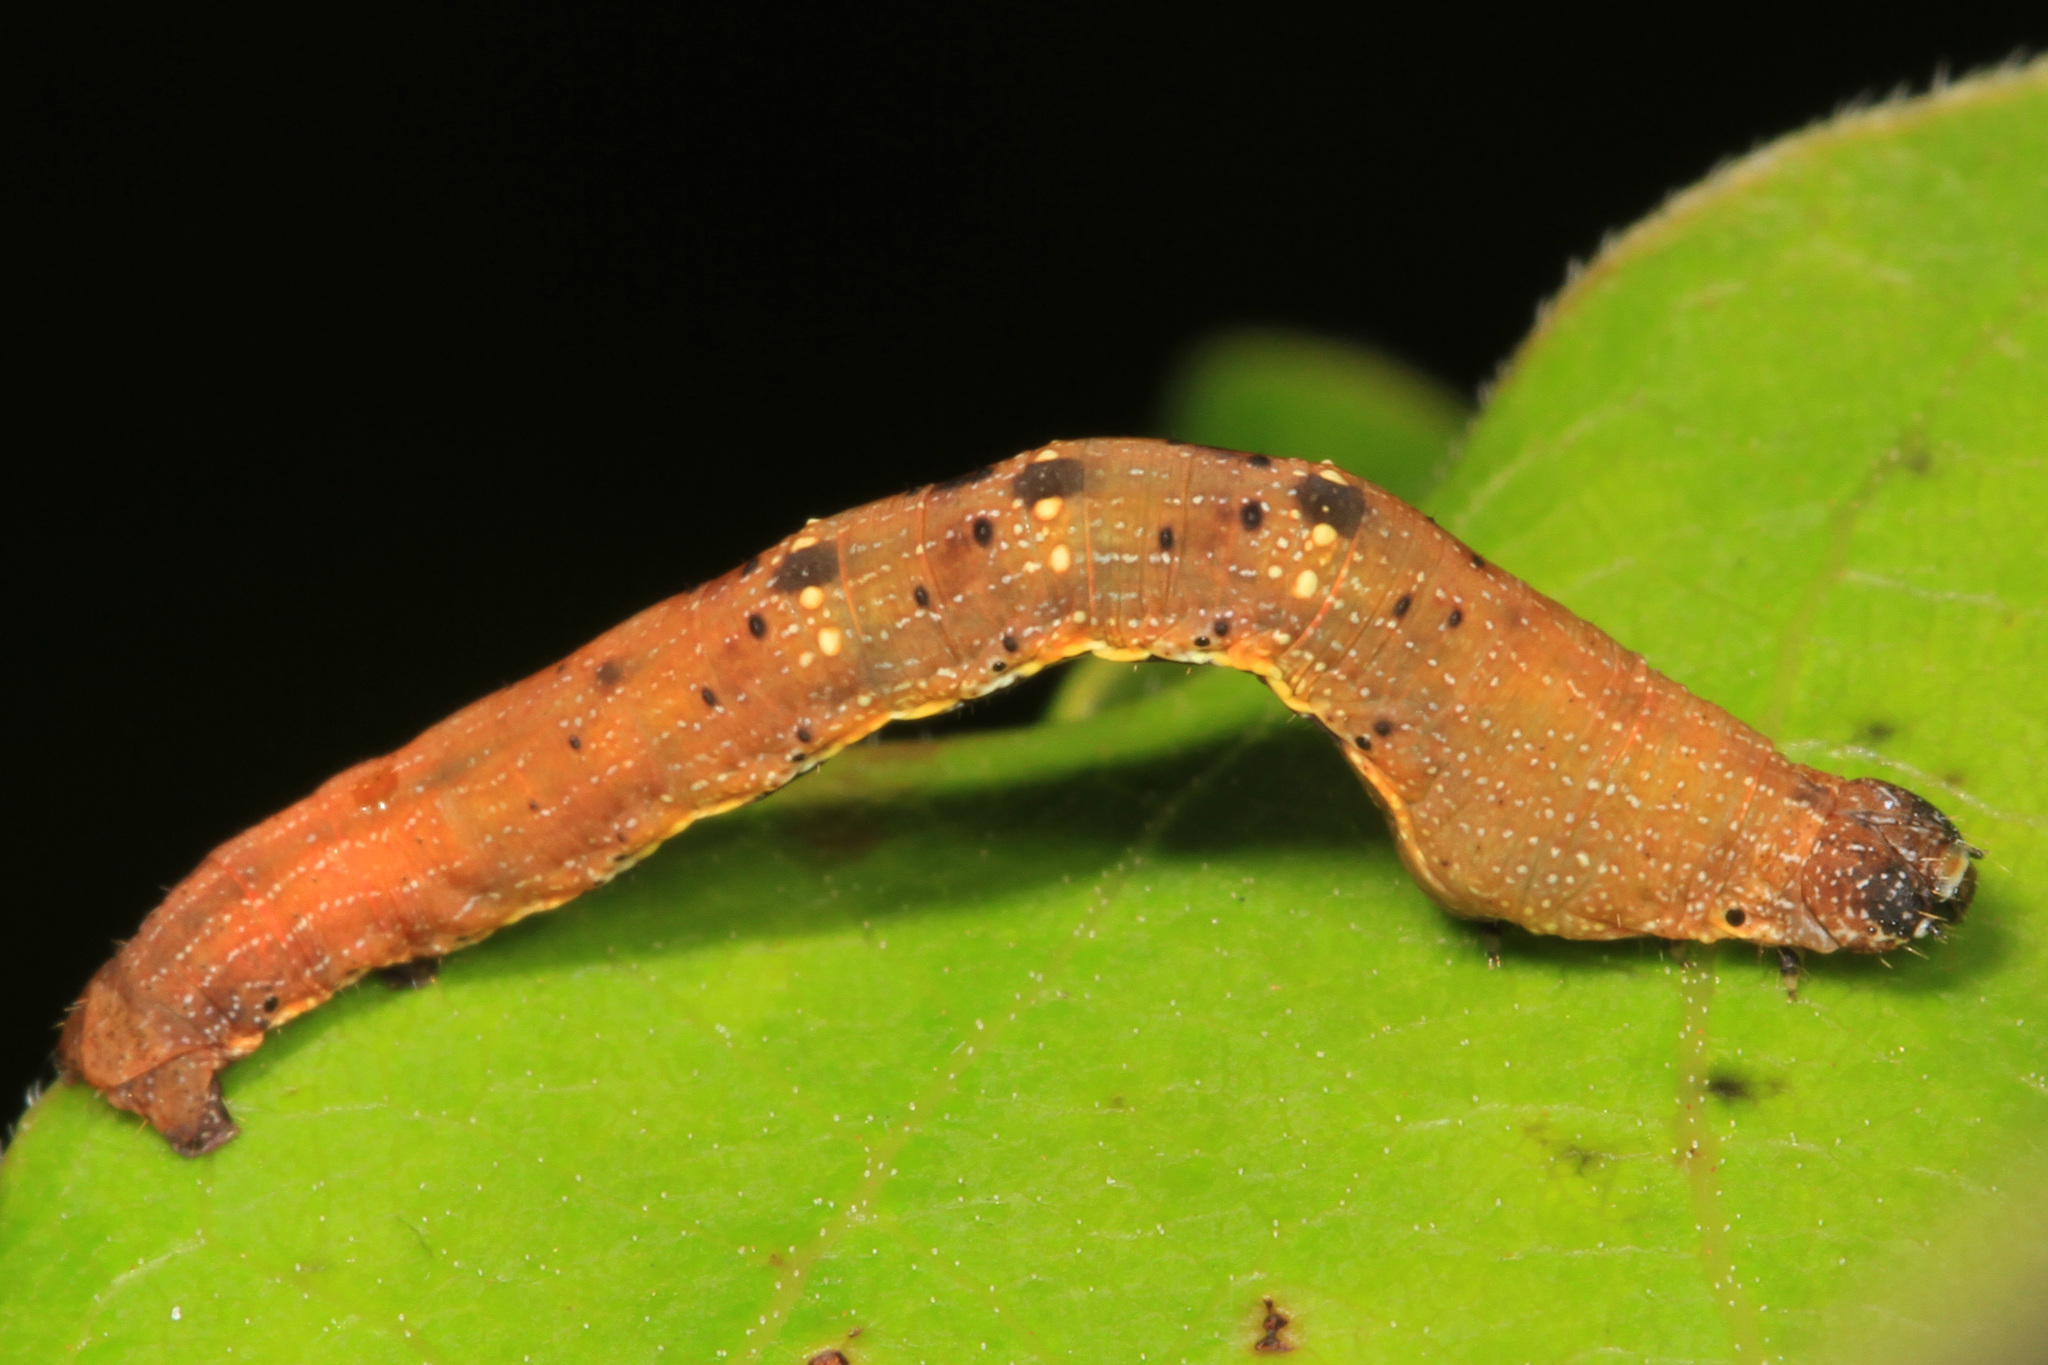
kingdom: Animalia
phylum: Arthropoda
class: Insecta
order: Lepidoptera
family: Geometridae
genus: Epimecis
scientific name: Epimecis hortaria
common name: Tulip-tree beauty
